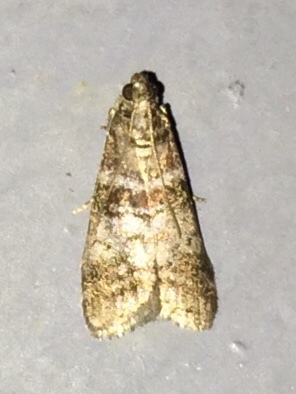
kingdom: Animalia
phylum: Arthropoda
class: Insecta
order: Lepidoptera
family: Pyralidae
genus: Sciota
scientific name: Sciota uvinella
